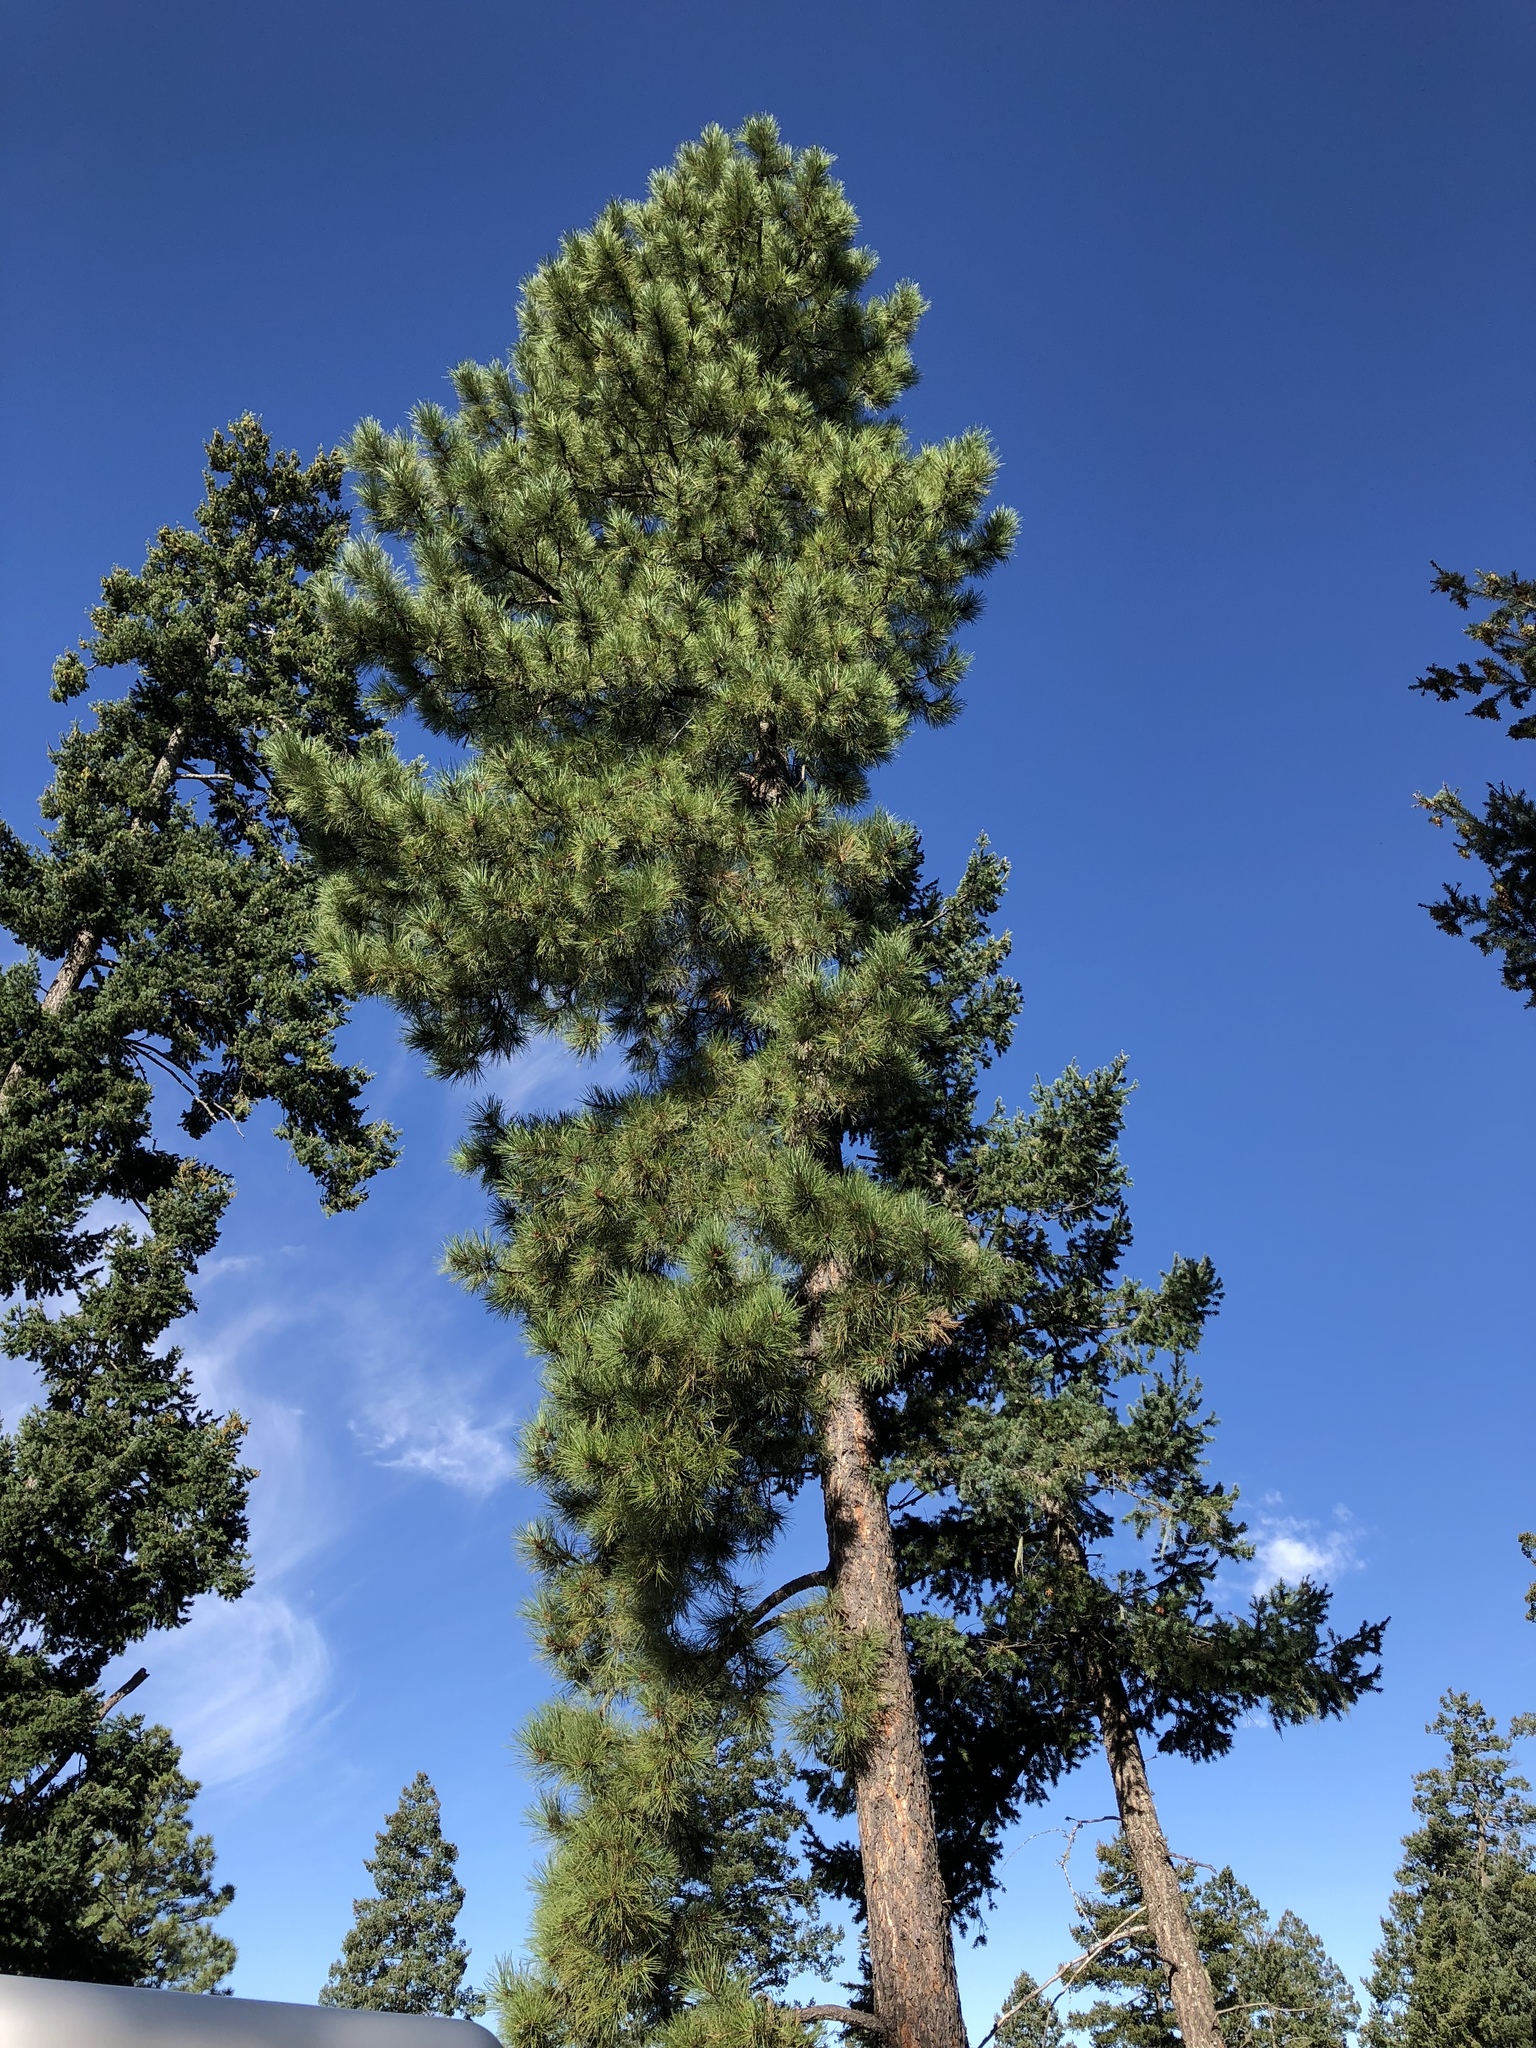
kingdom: Plantae
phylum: Tracheophyta
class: Pinopsida
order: Pinales
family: Pinaceae
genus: Pinus
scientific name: Pinus ponderosa
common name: Western yellow-pine
